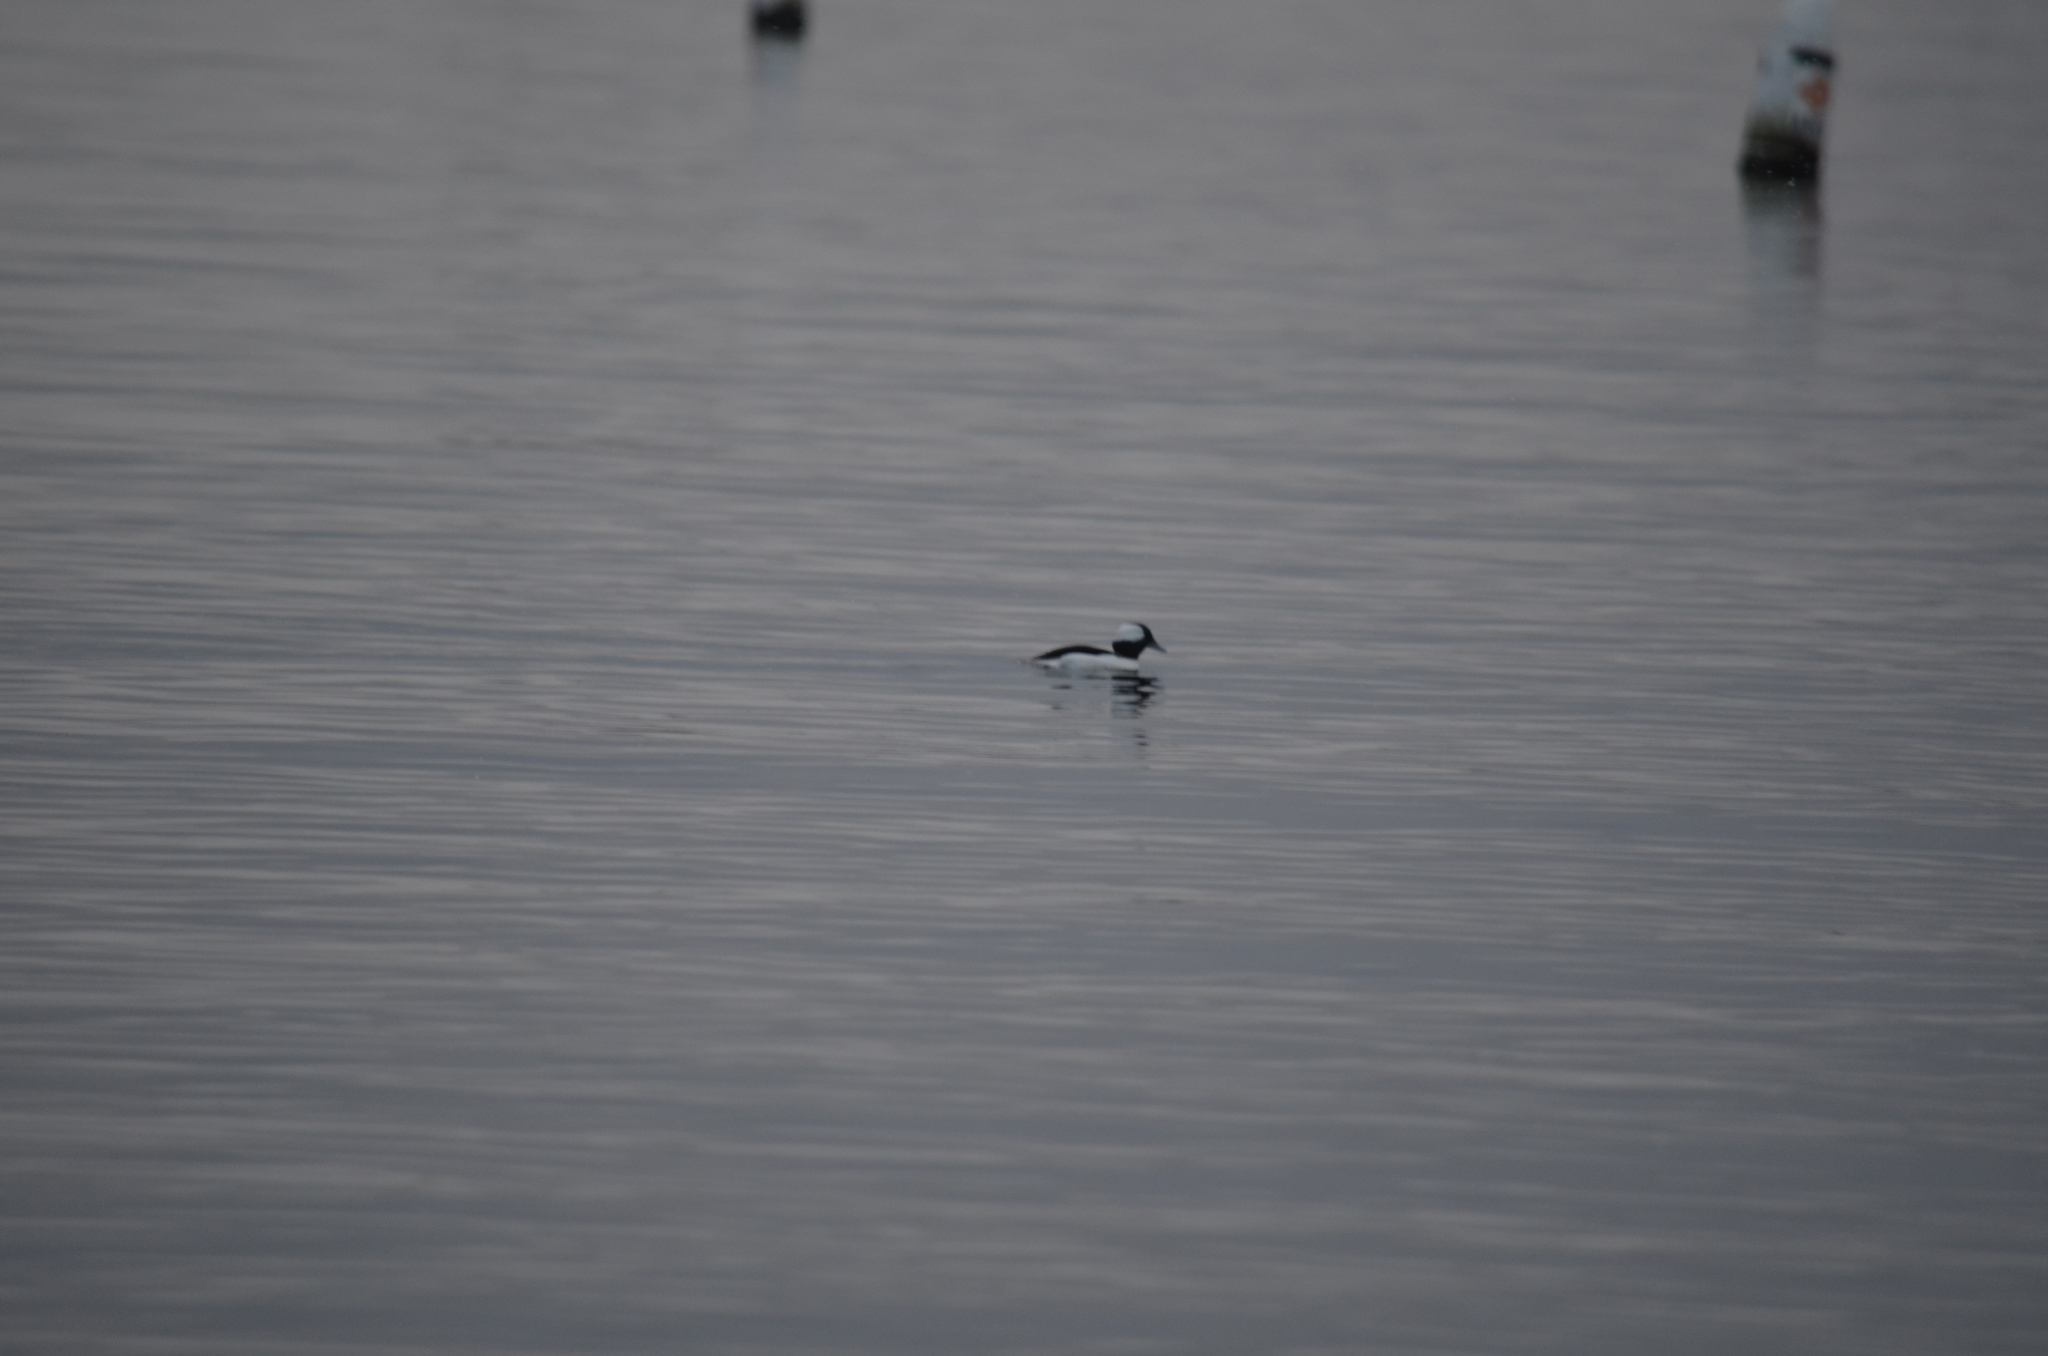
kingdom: Animalia
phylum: Chordata
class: Aves
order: Anseriformes
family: Anatidae
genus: Bucephala
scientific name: Bucephala albeola
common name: Bufflehead
